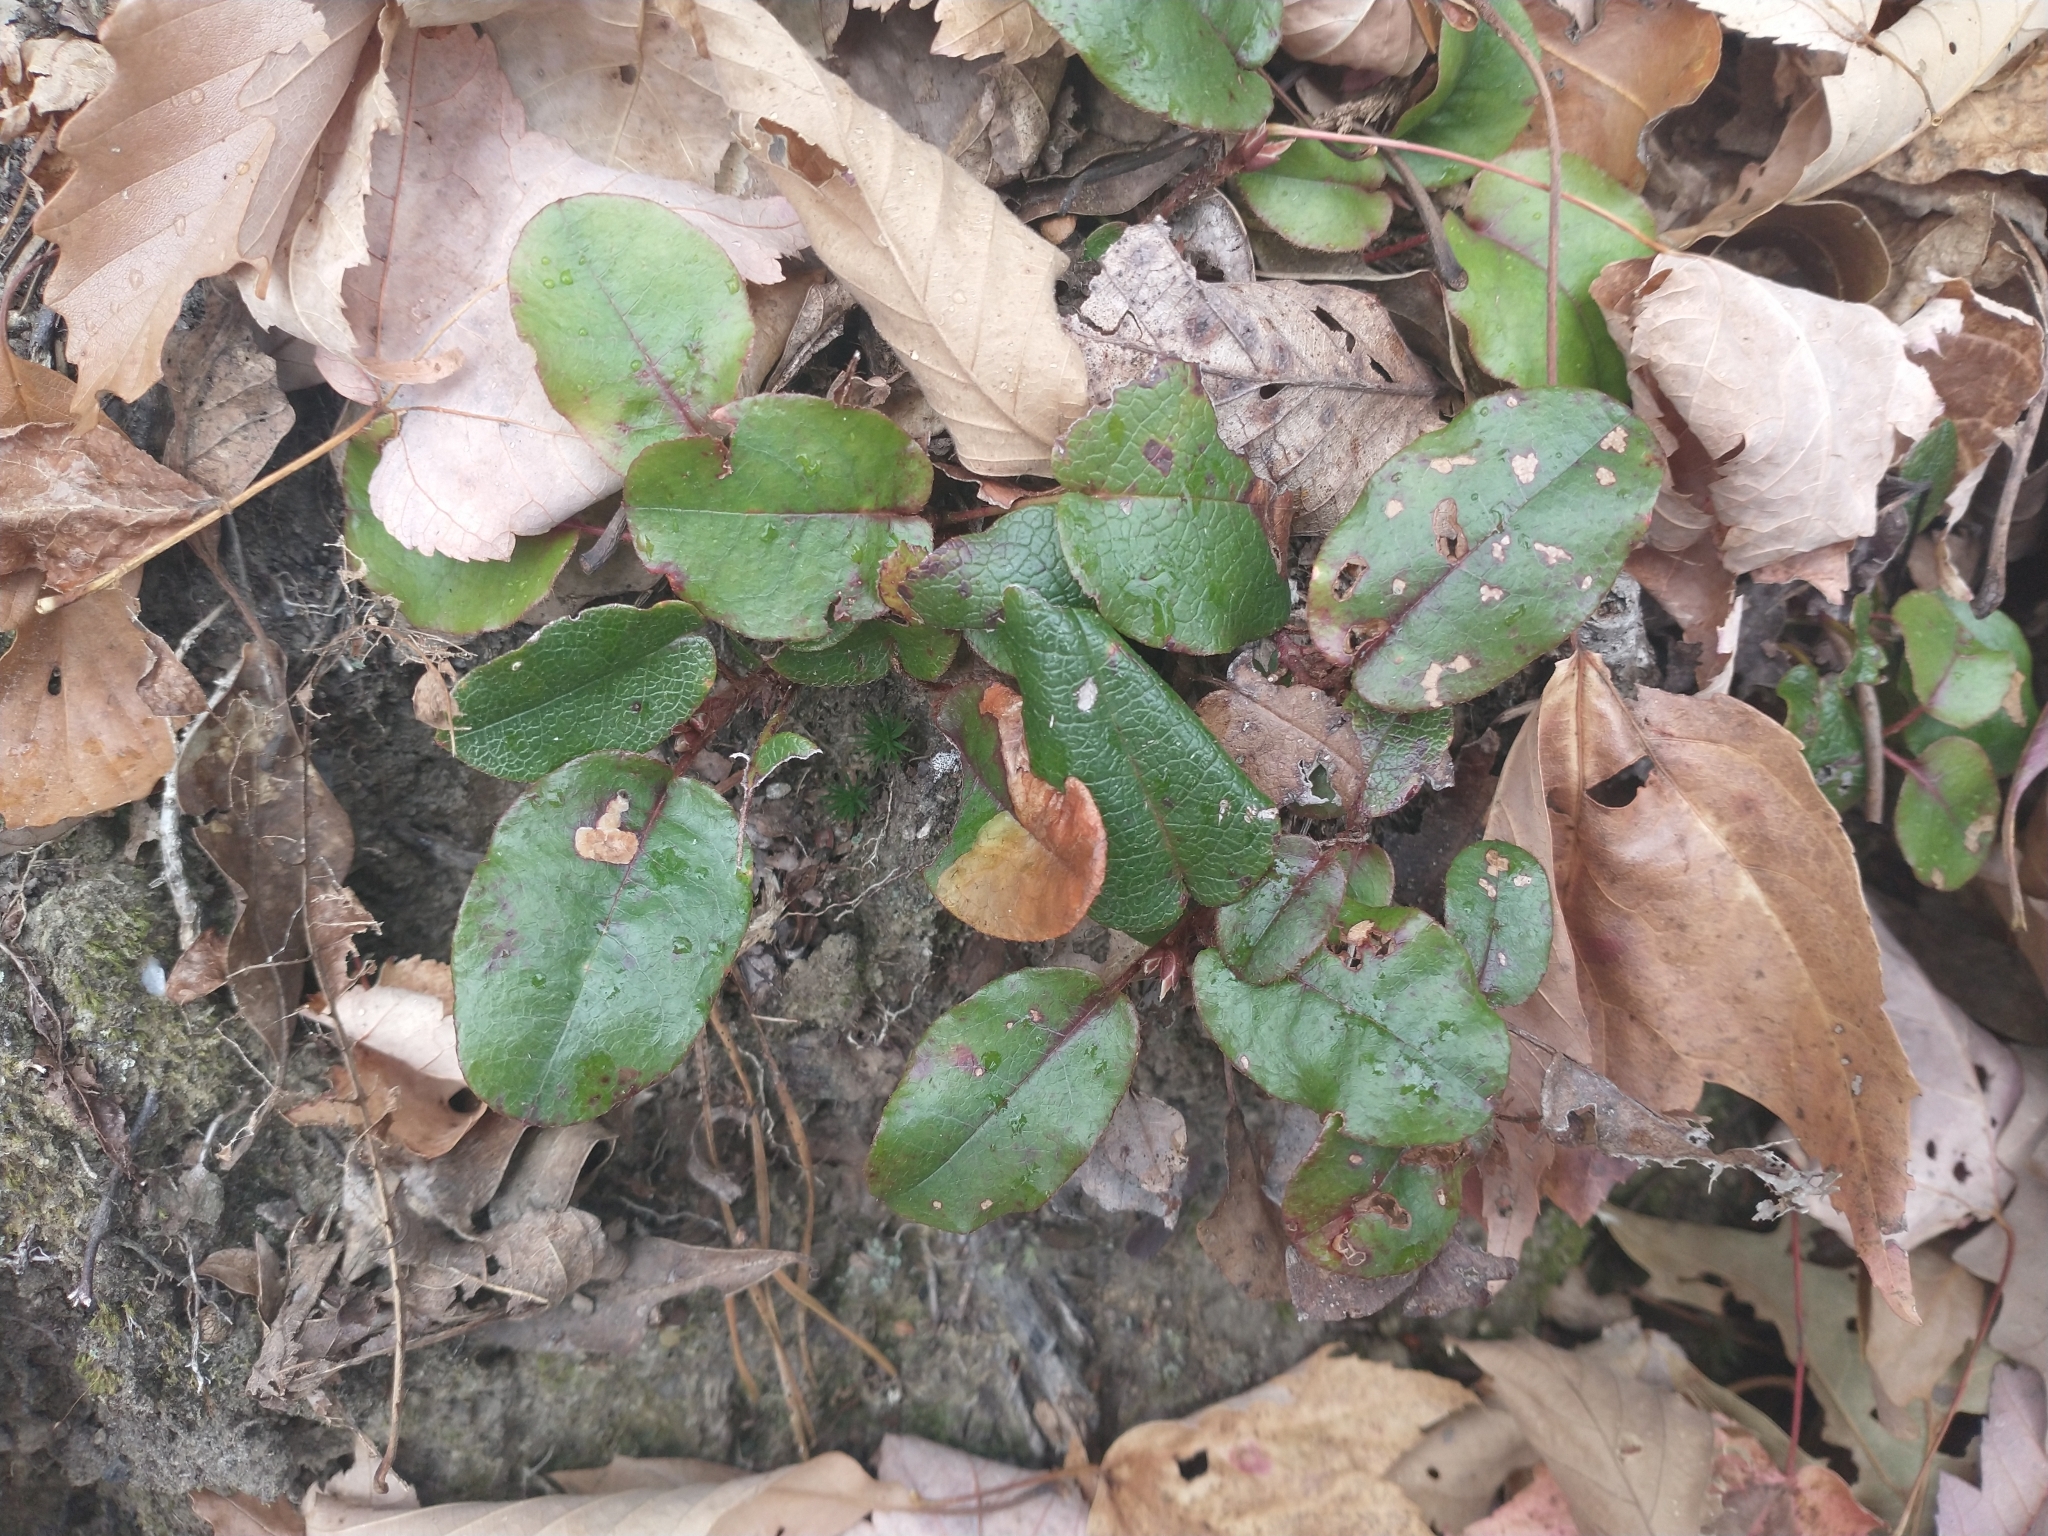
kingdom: Plantae
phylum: Tracheophyta
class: Magnoliopsida
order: Ericales
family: Ericaceae
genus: Epigaea
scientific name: Epigaea repens
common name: Gravelroot
